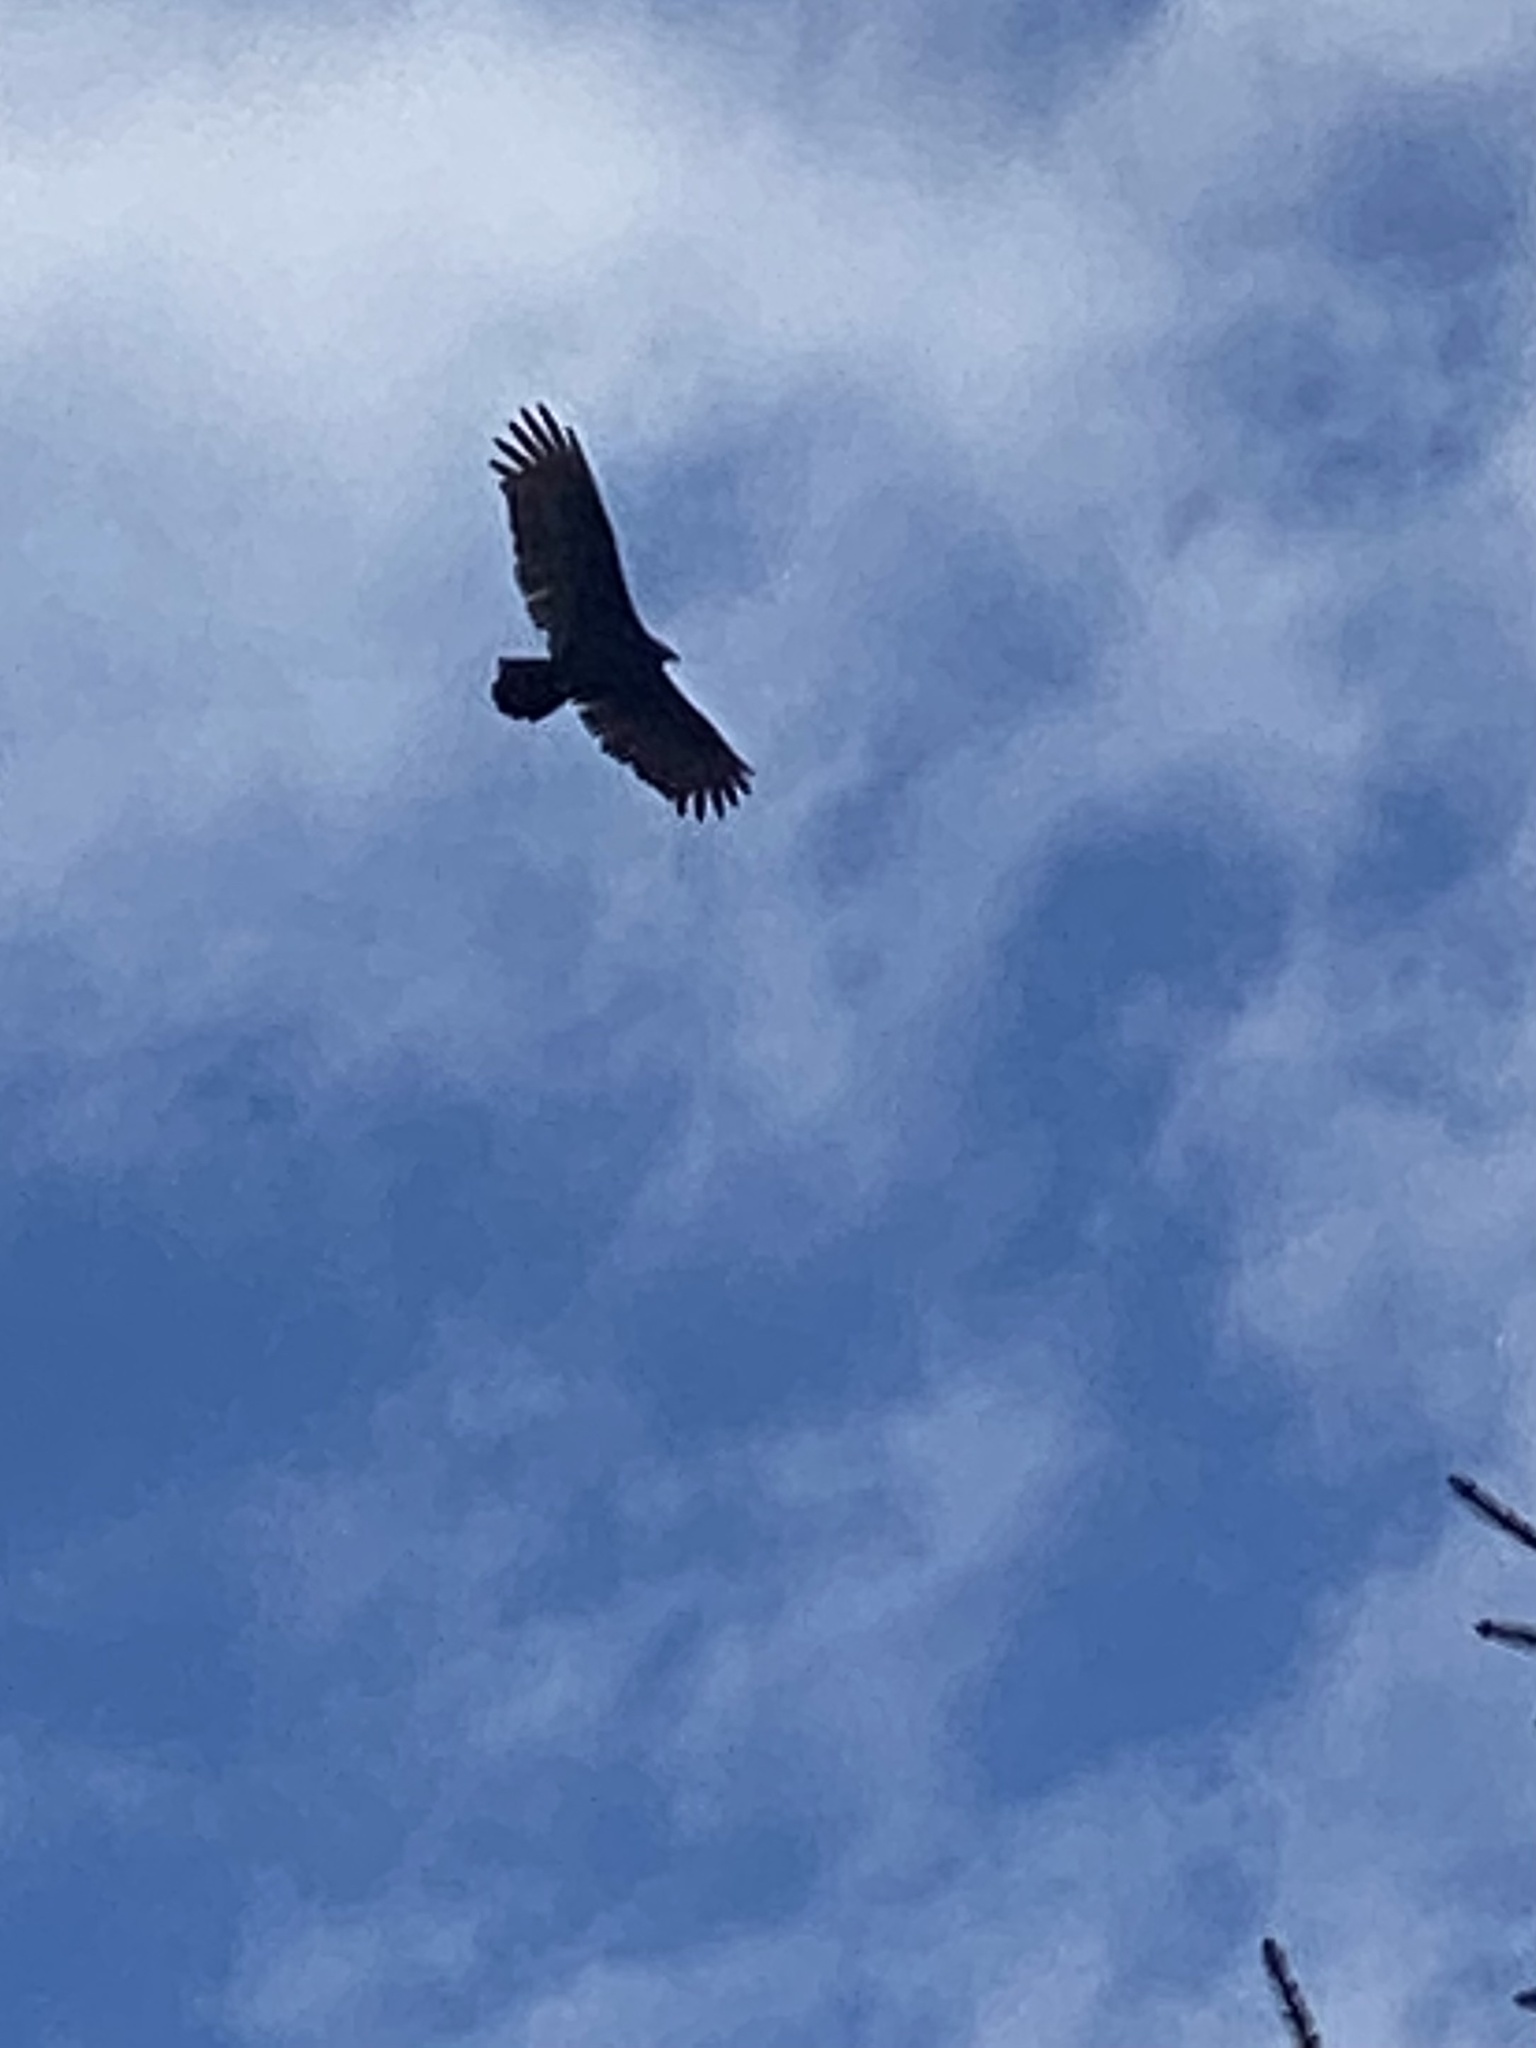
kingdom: Animalia
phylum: Chordata
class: Aves
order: Accipitriformes
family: Cathartidae
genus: Cathartes
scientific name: Cathartes aura
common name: Turkey vulture
